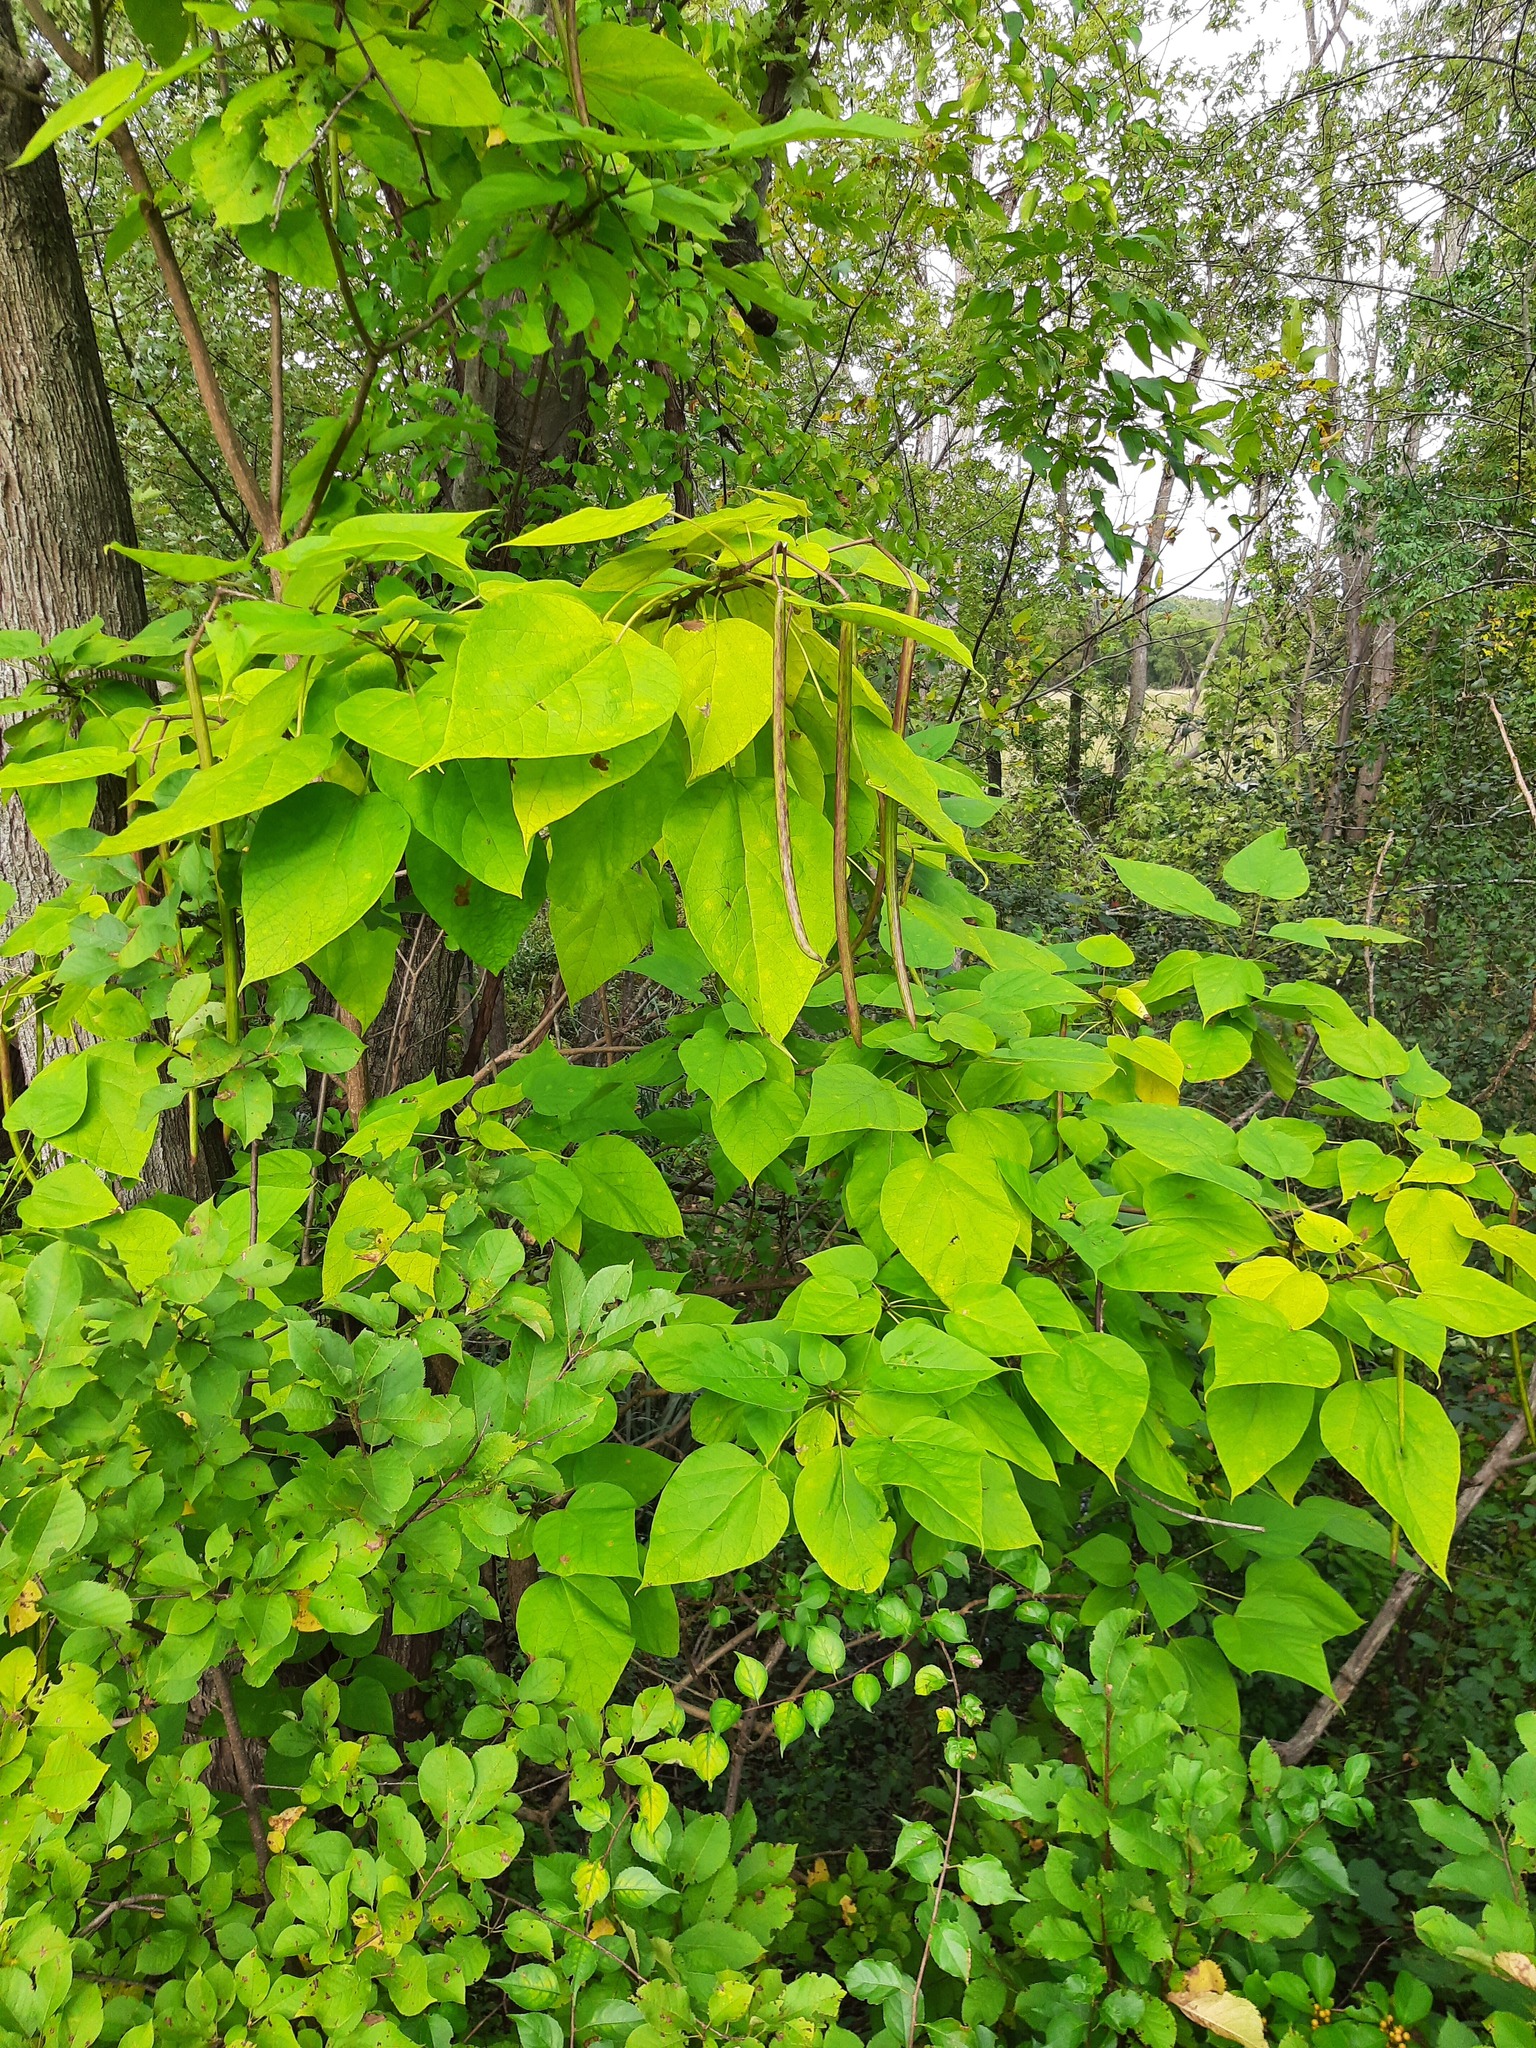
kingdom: Plantae
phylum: Tracheophyta
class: Magnoliopsida
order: Lamiales
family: Bignoniaceae
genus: Catalpa
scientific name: Catalpa speciosa
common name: Northern catalpa
